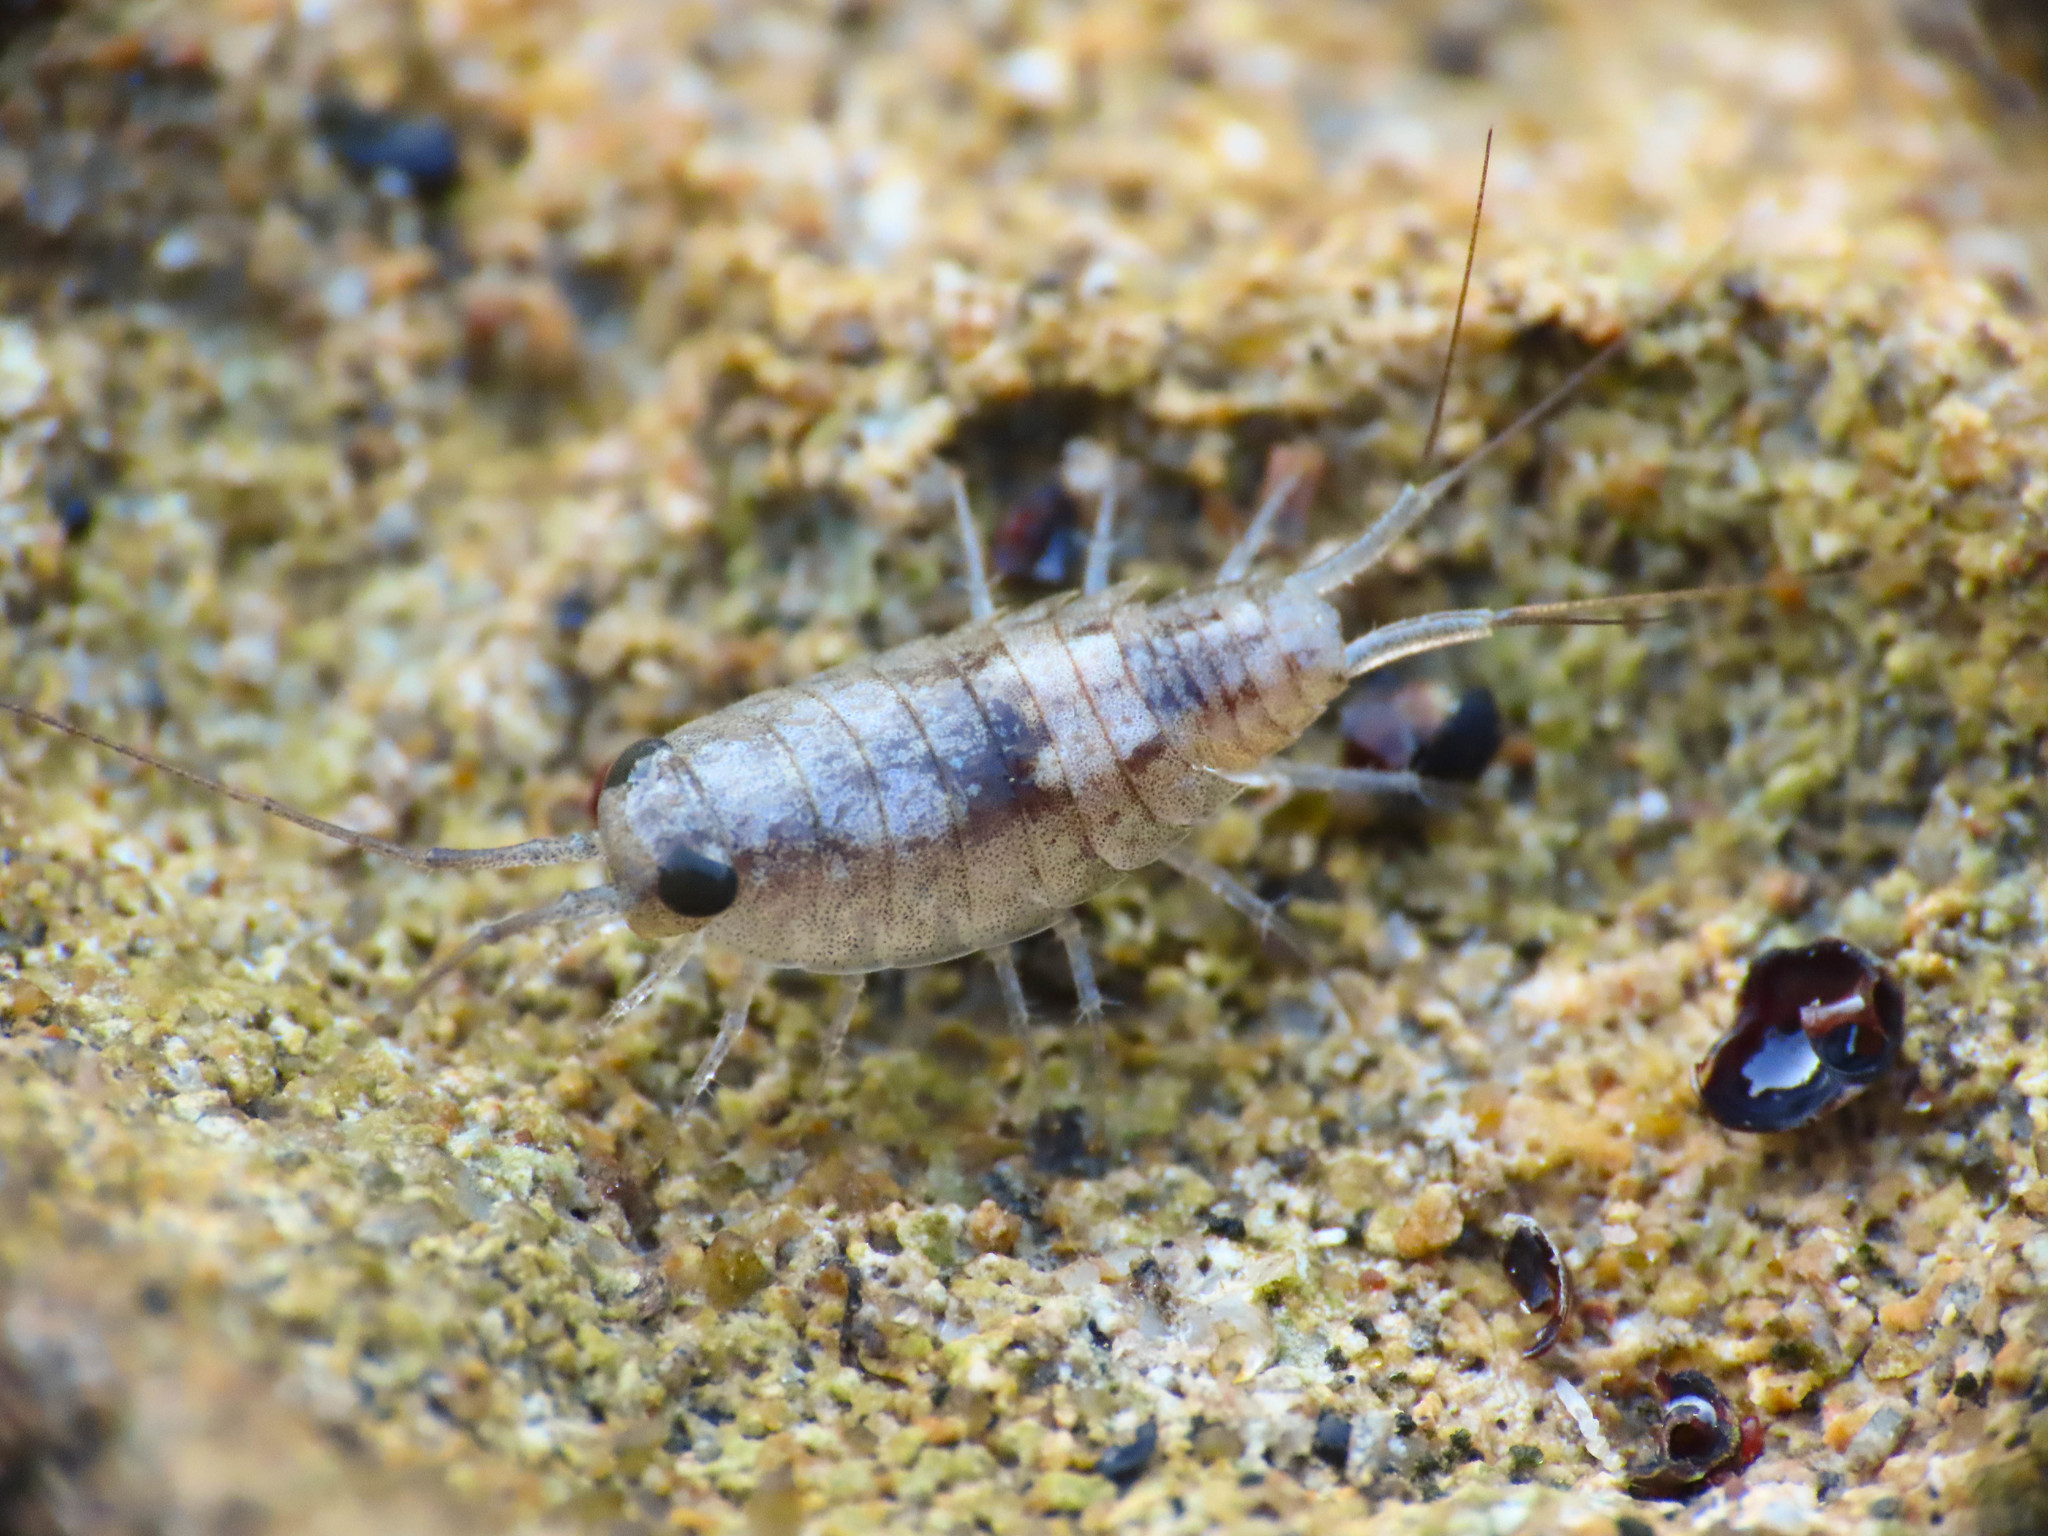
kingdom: Animalia
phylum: Arthropoda
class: Malacostraca
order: Isopoda
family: Ligiidae
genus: Ligia
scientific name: Ligia italica
